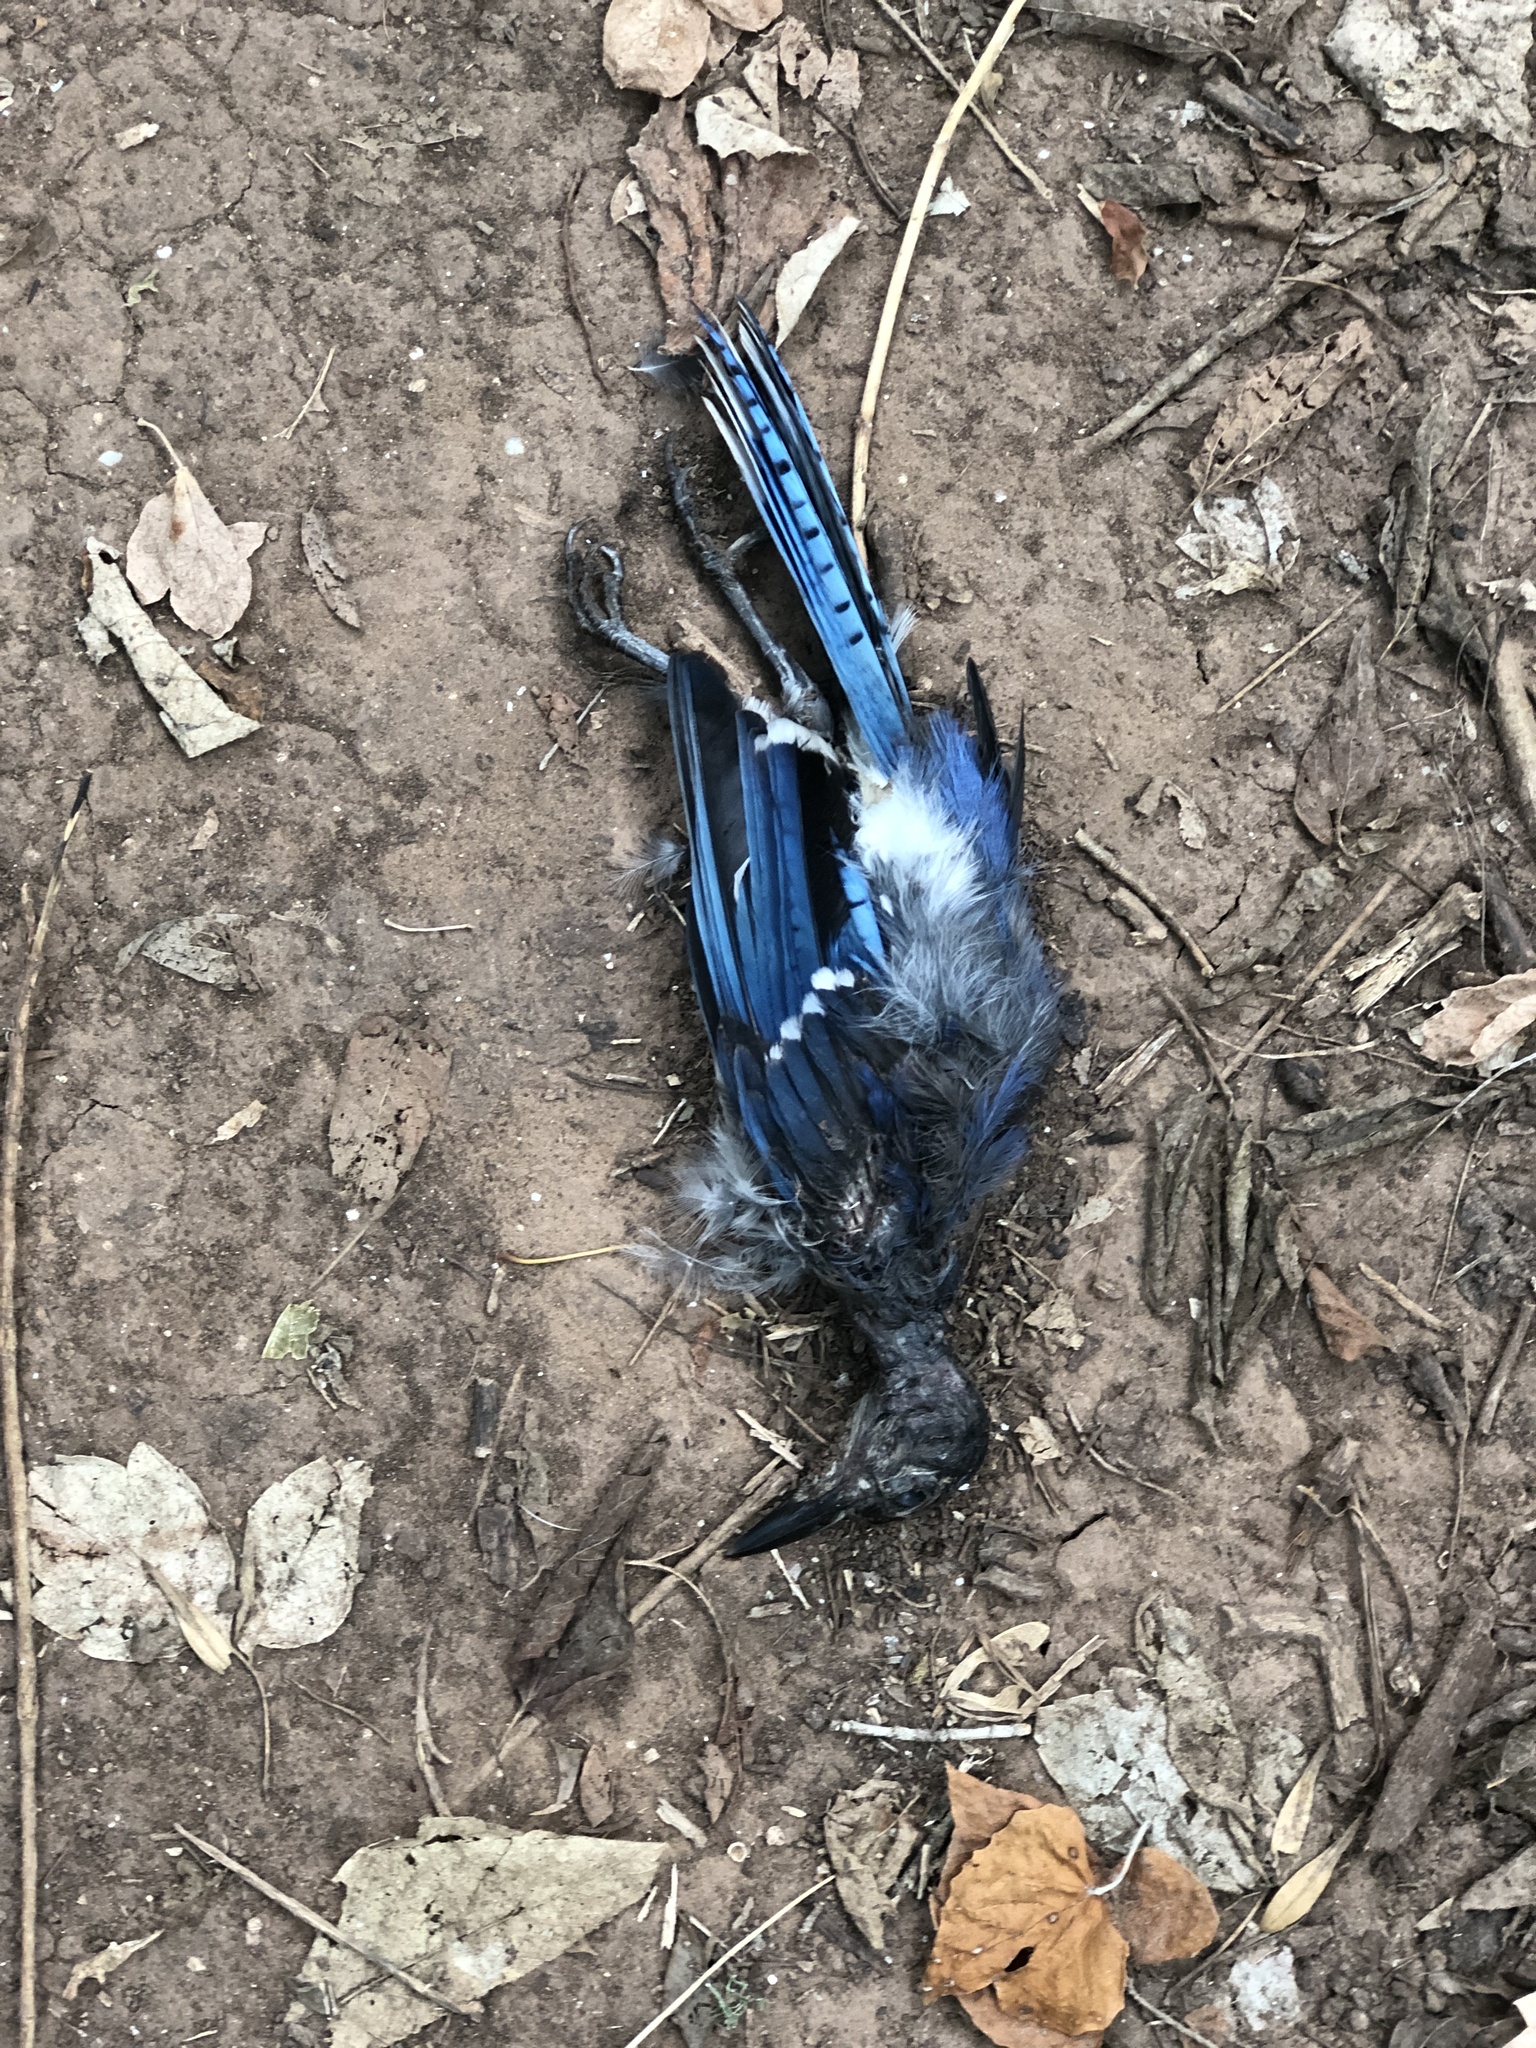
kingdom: Animalia
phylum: Chordata
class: Aves
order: Passeriformes
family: Corvidae
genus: Cyanocitta
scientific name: Cyanocitta cristata
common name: Blue jay
